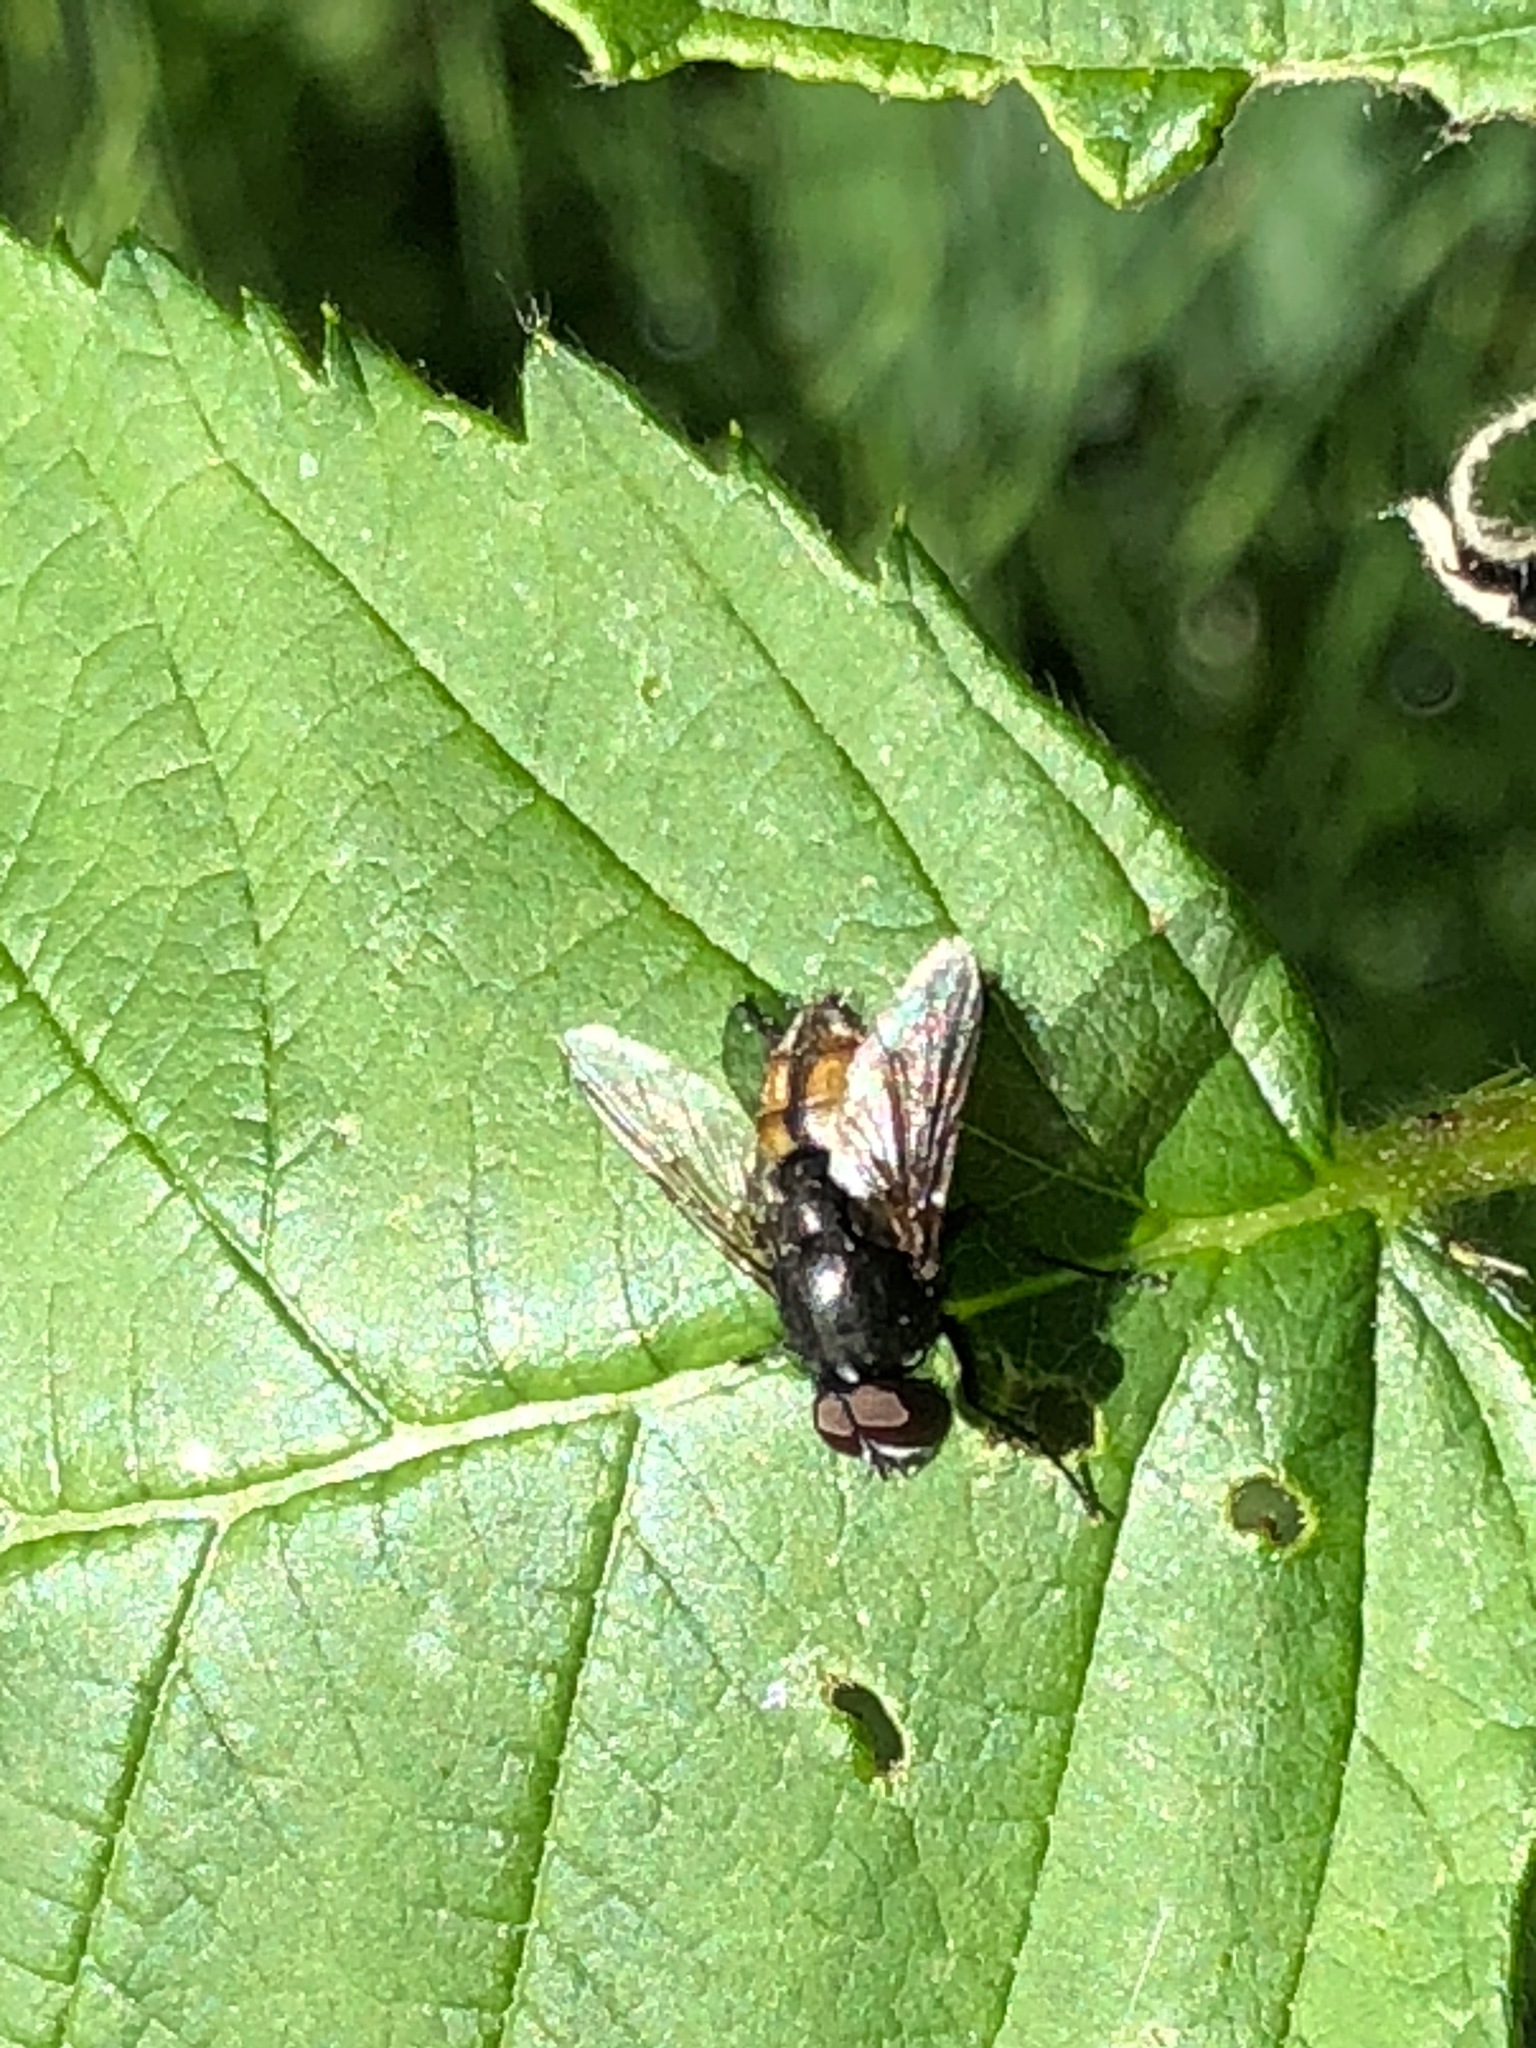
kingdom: Animalia
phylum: Arthropoda
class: Insecta
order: Diptera
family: Muscidae
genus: Musca
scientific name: Musca autumnalis
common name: Face fly
